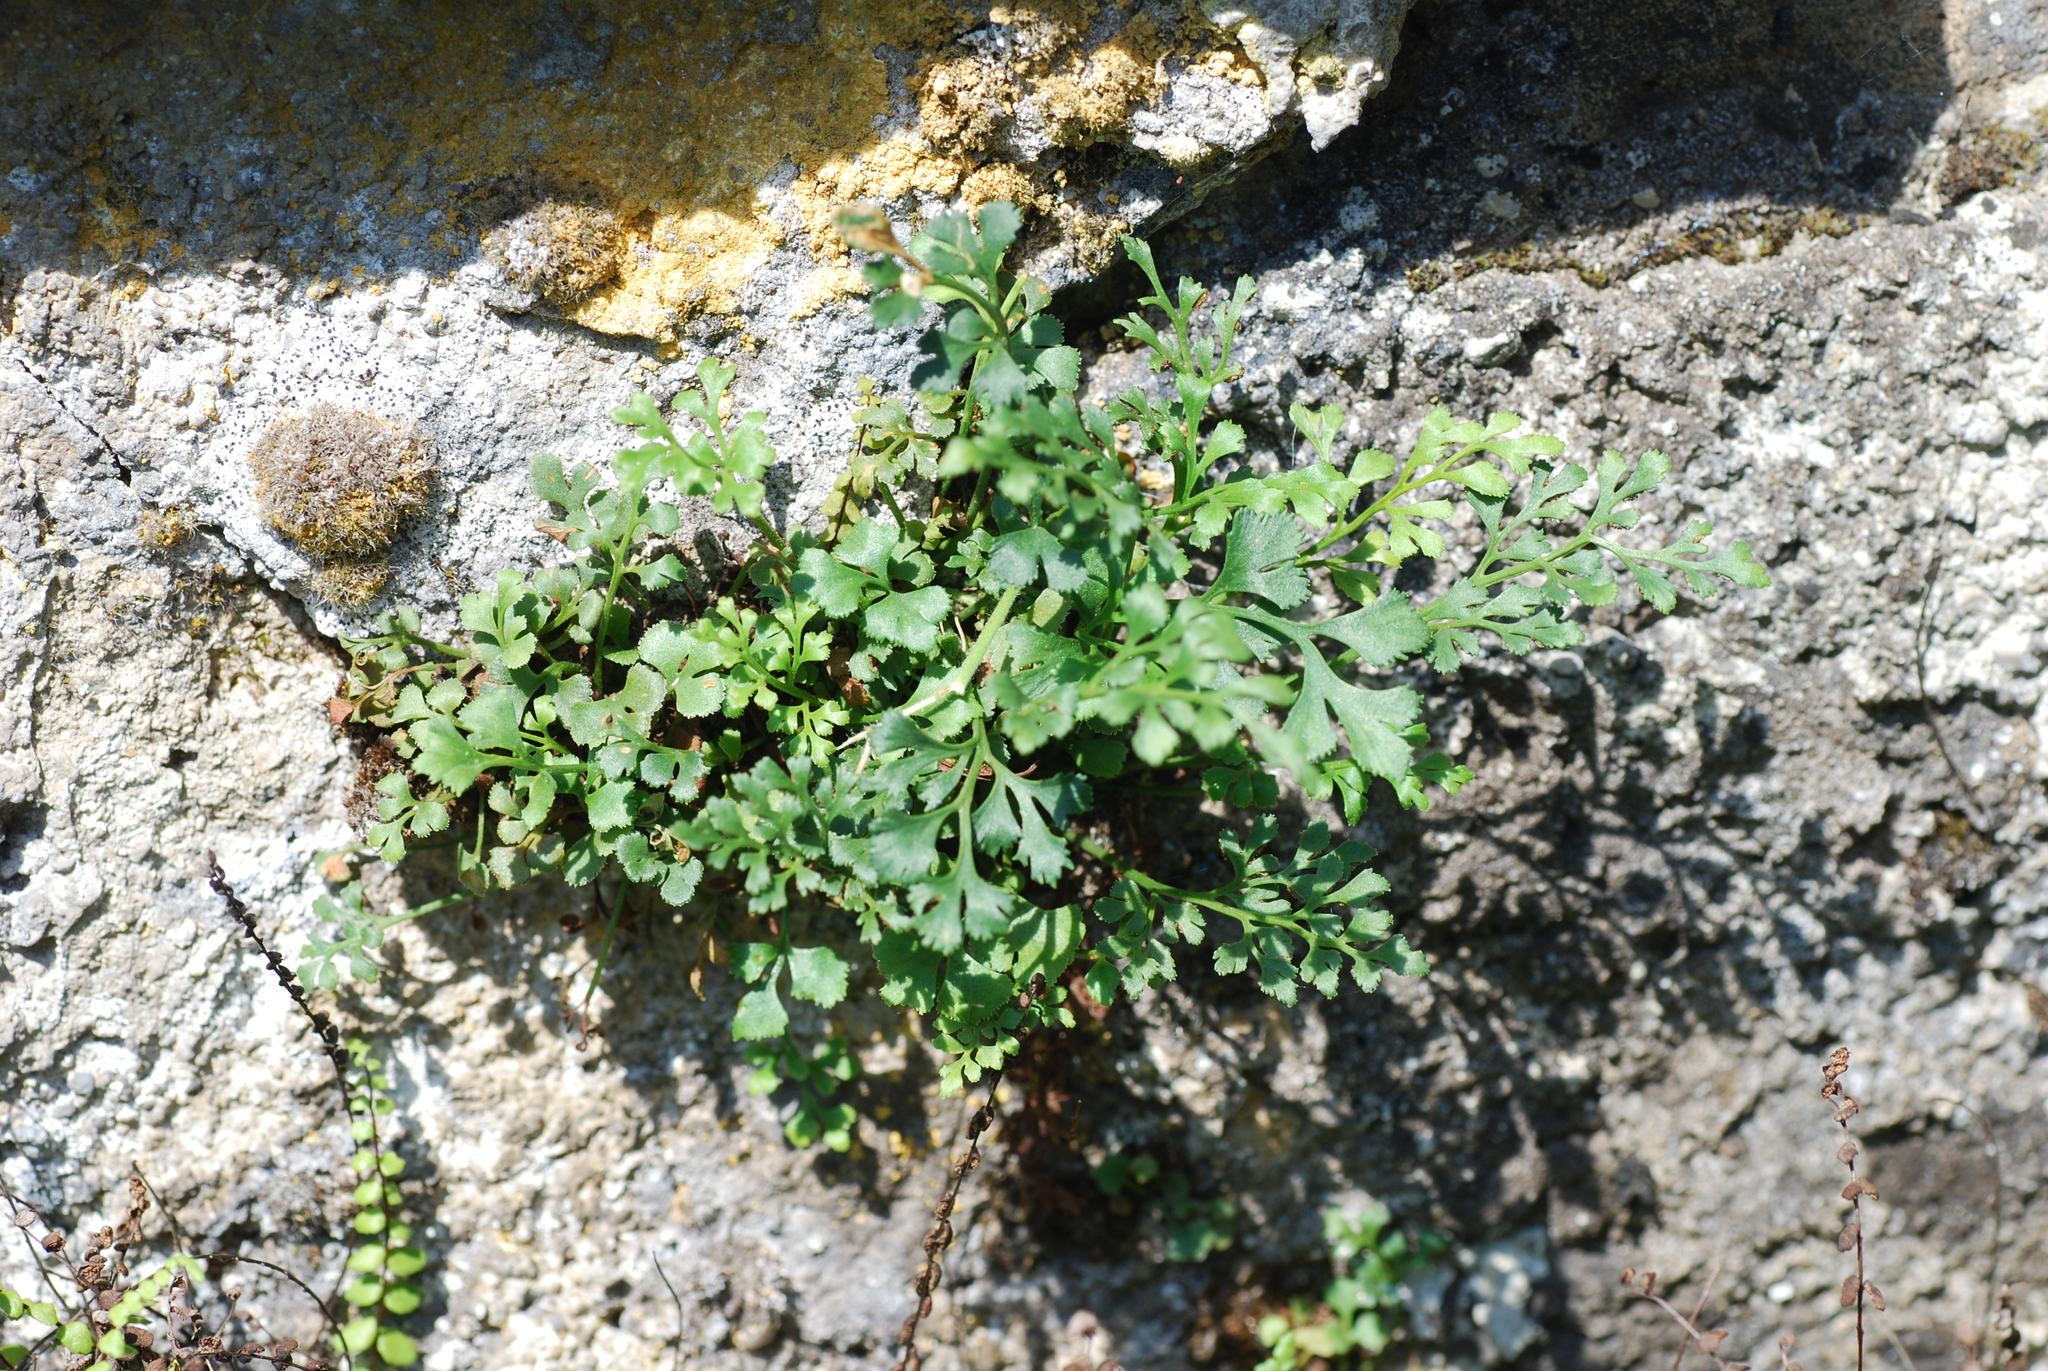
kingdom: Plantae
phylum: Tracheophyta
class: Polypodiopsida
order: Polypodiales
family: Aspleniaceae
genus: Asplenium
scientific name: Asplenium ruta-muraria
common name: Wall-rue
